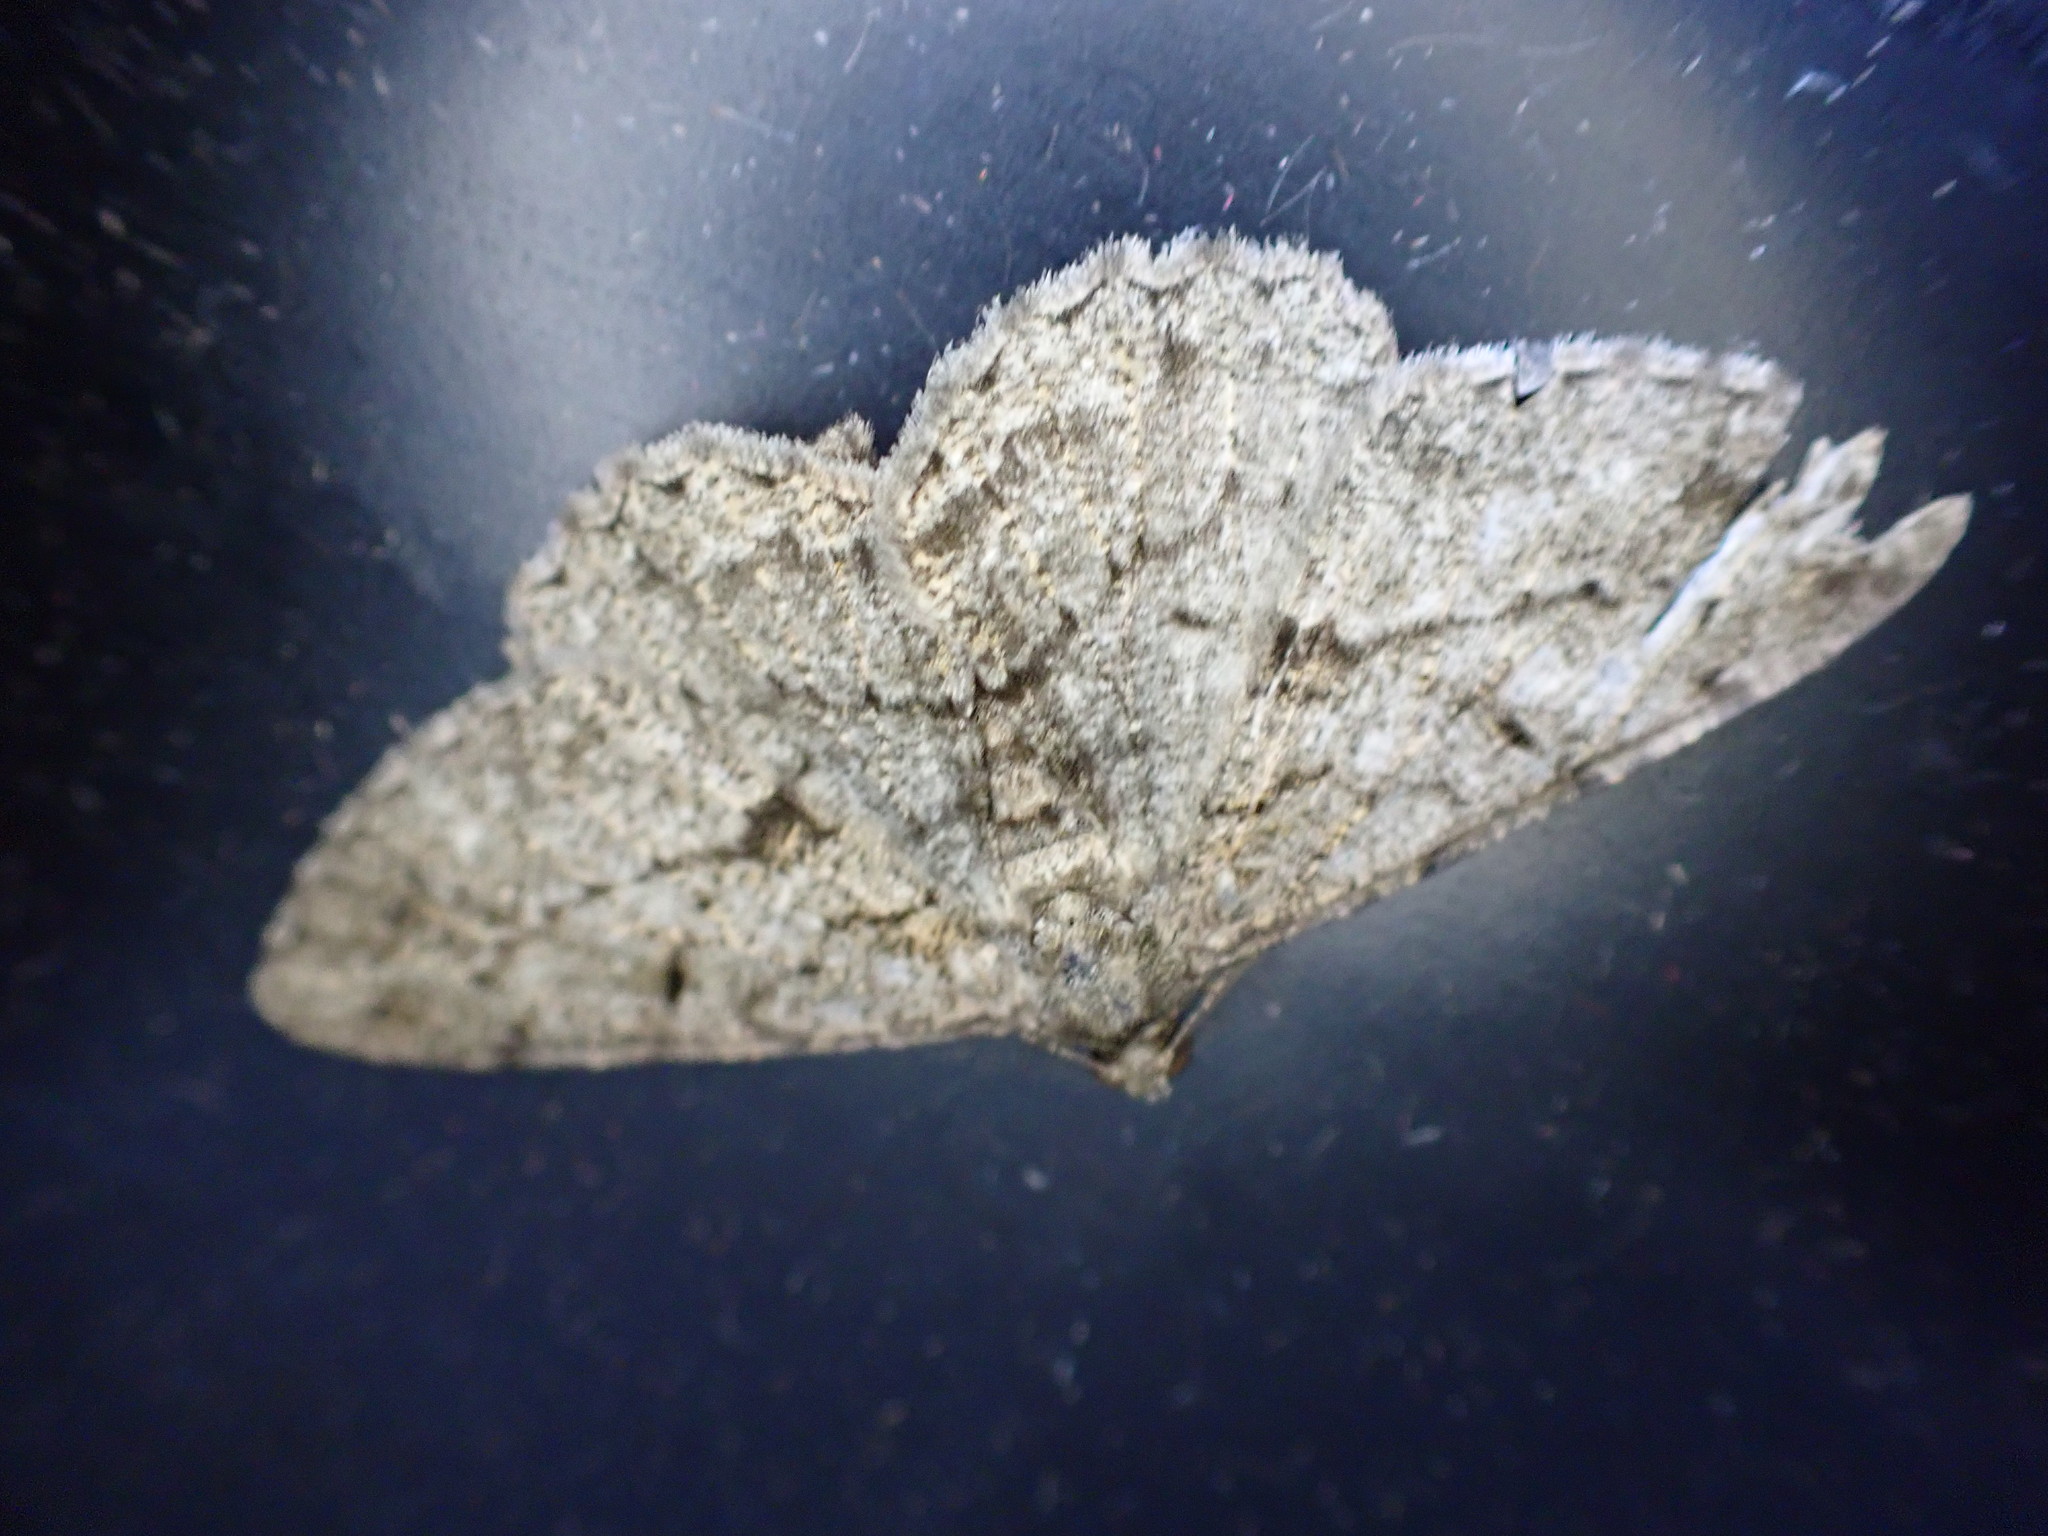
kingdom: Animalia
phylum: Arthropoda
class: Insecta
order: Lepidoptera
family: Geometridae
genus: Peribatodes
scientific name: Peribatodes rhomboidaria
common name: Willow beauty
